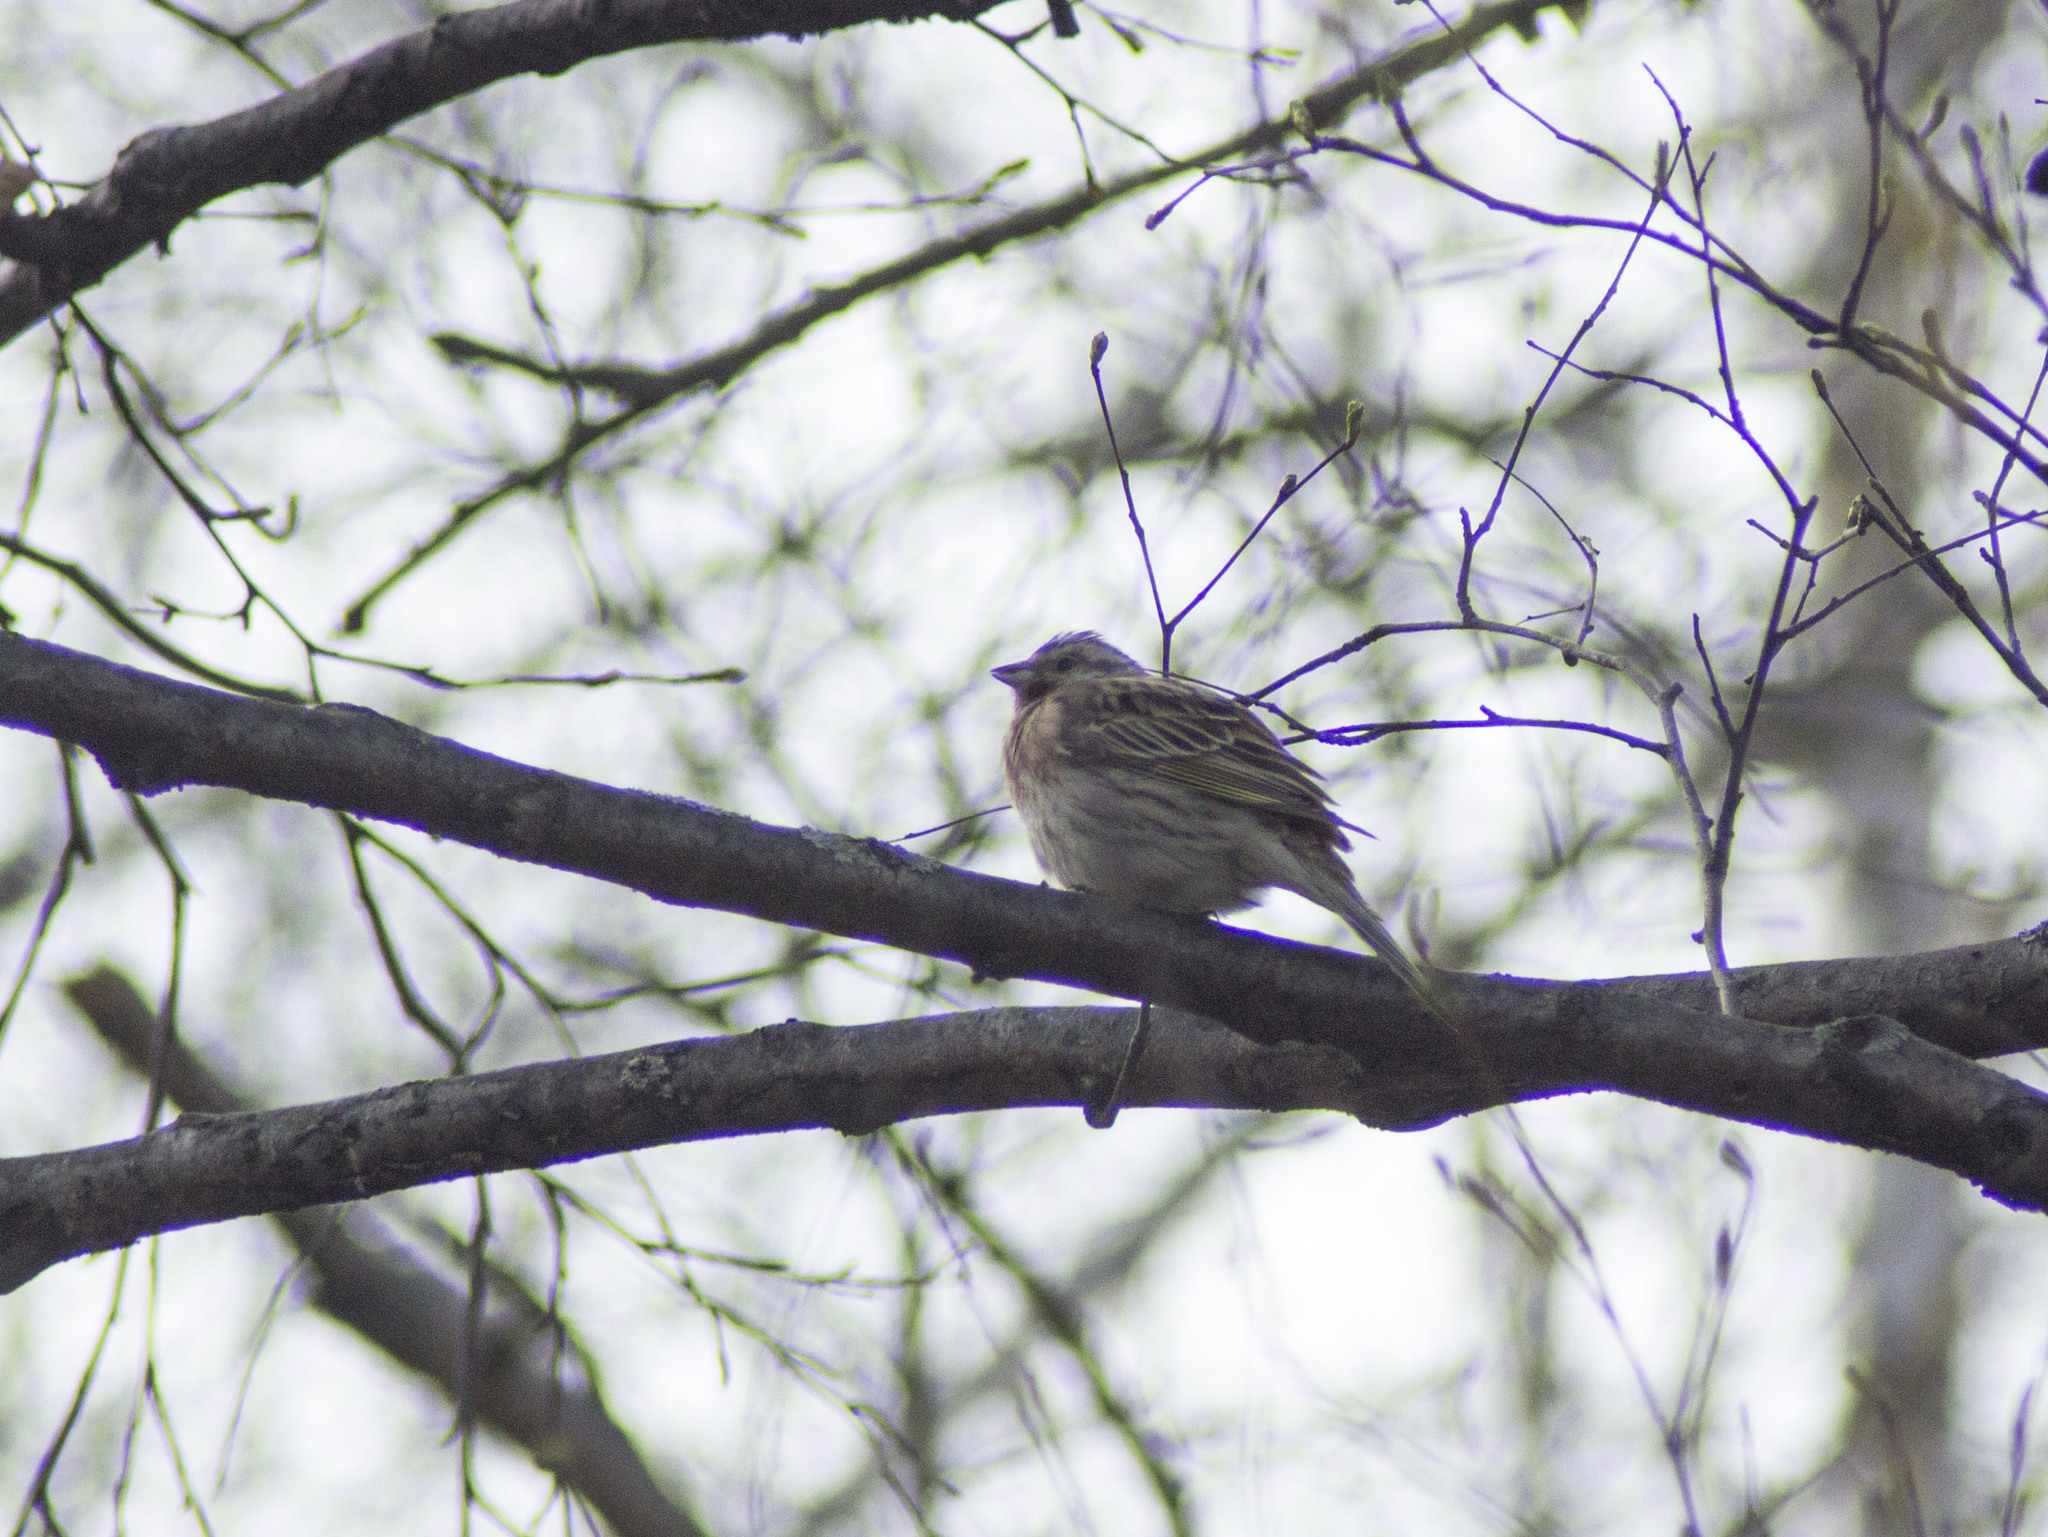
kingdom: Animalia
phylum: Chordata
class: Aves
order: Passeriformes
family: Emberizidae
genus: Emberiza
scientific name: Emberiza
